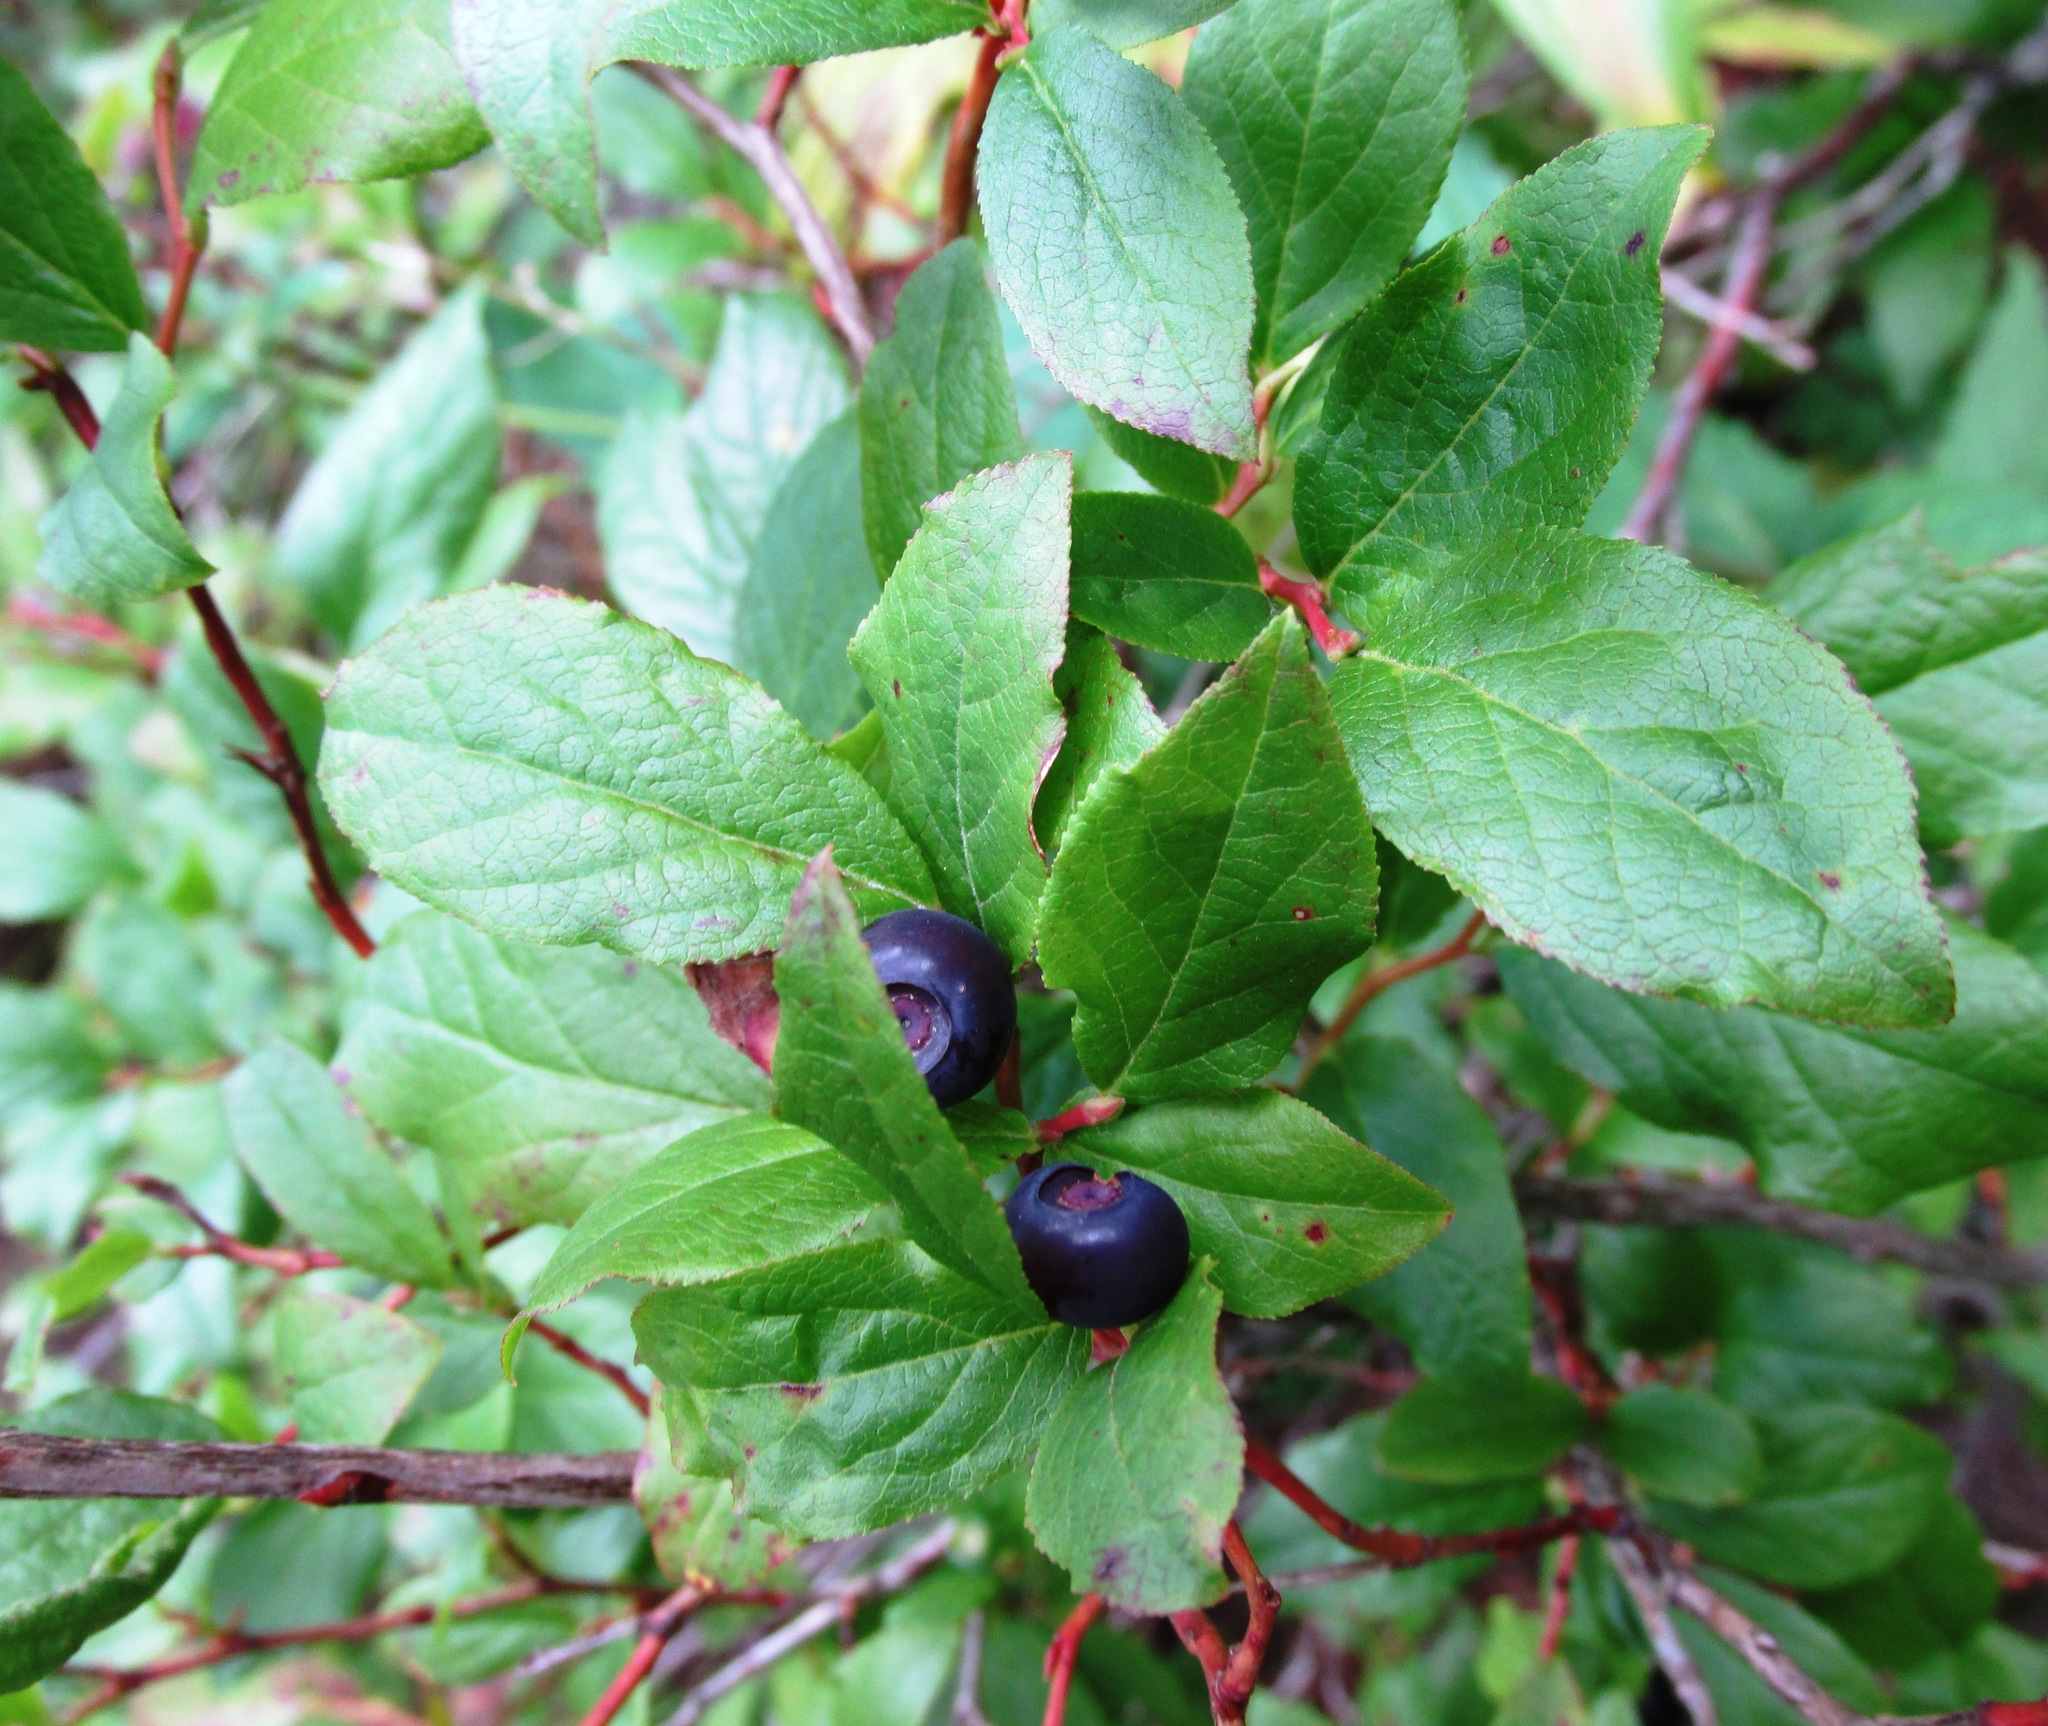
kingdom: Plantae
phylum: Tracheophyta
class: Magnoliopsida
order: Ericales
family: Ericaceae
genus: Vaccinium
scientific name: Vaccinium membranaceum
